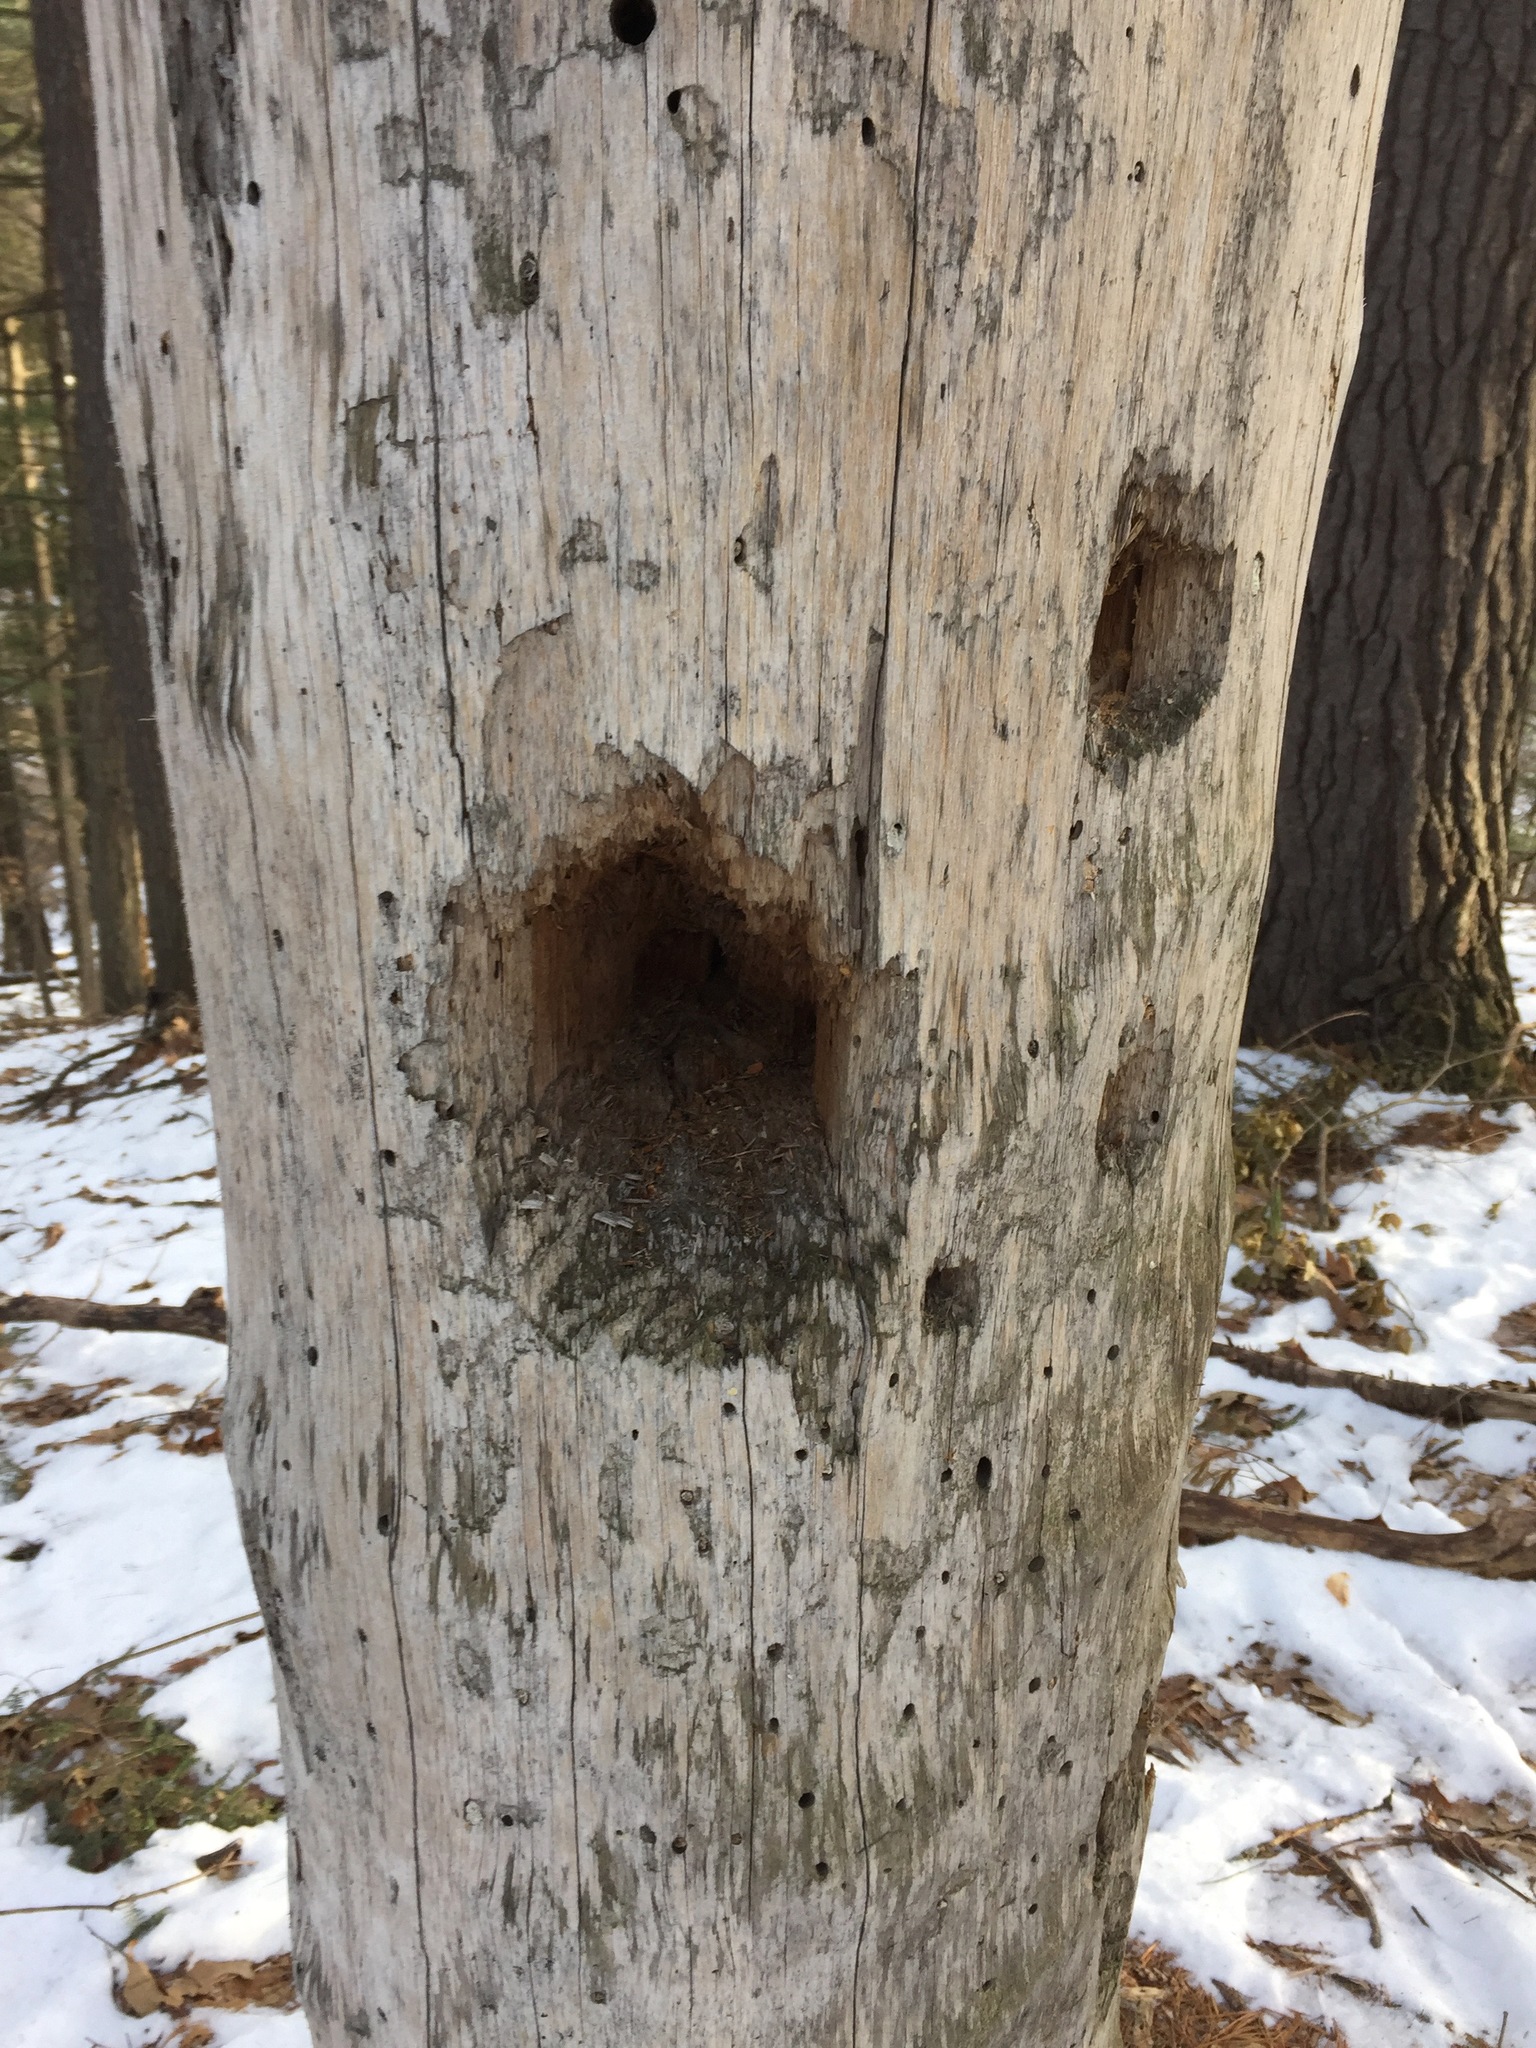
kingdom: Animalia
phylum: Chordata
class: Aves
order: Piciformes
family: Picidae
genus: Dryocopus
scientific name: Dryocopus pileatus
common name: Pileated woodpecker
